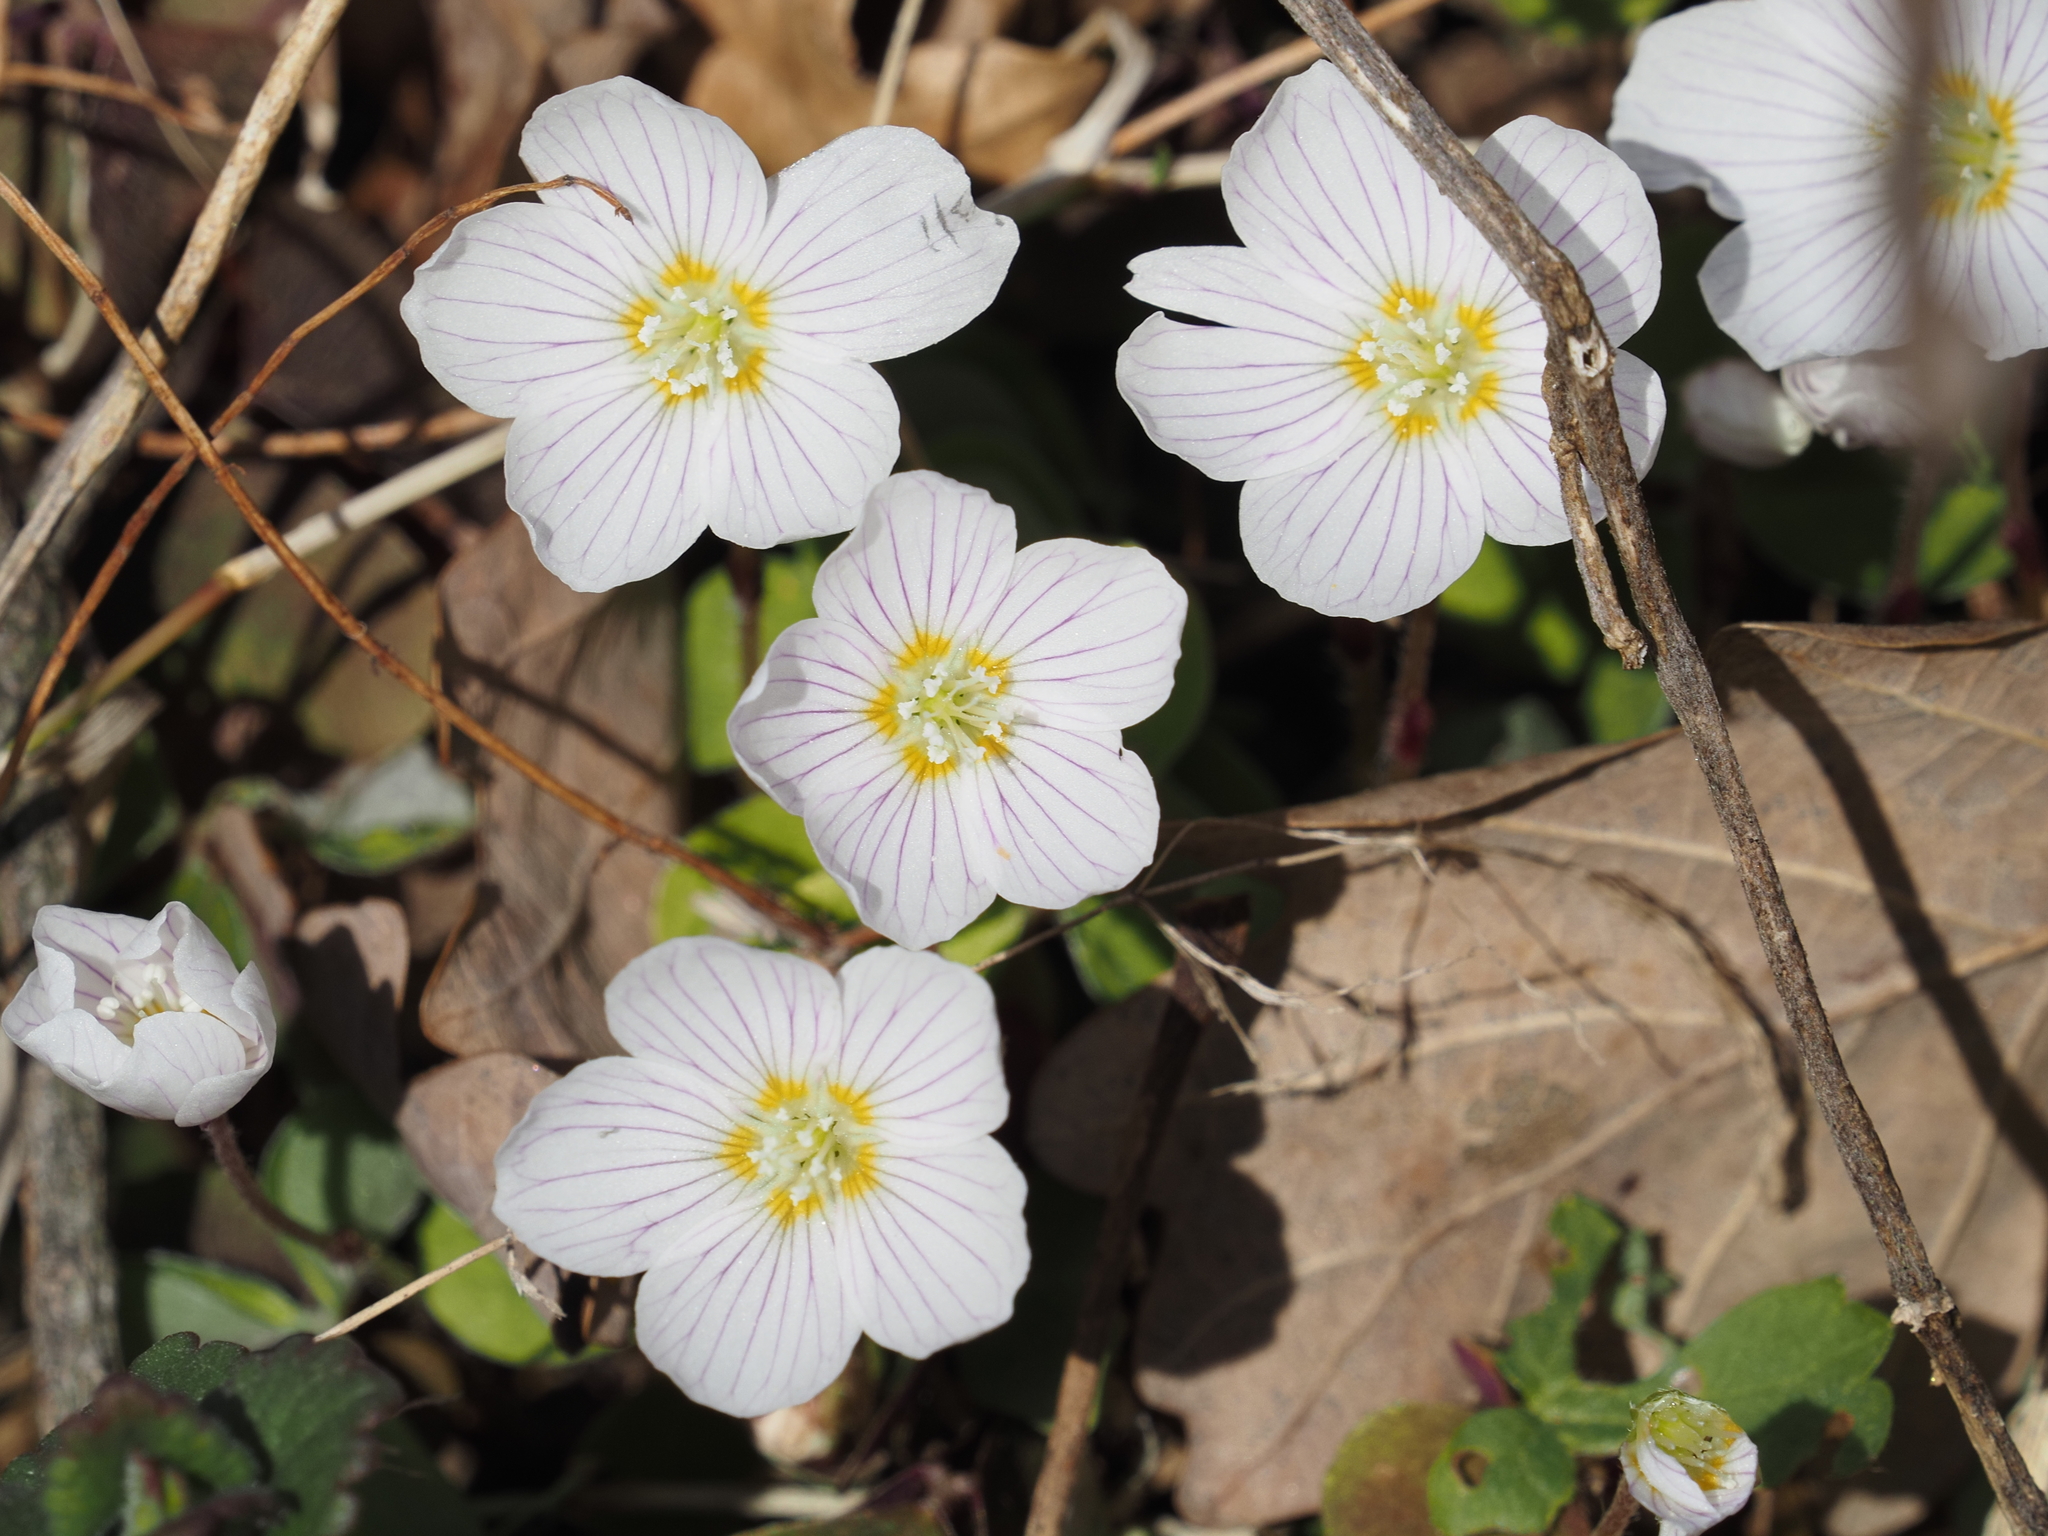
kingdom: Plantae
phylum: Tracheophyta
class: Magnoliopsida
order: Oxalidales
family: Oxalidaceae
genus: Oxalis
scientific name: Oxalis acetosella
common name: Wood-sorrel
